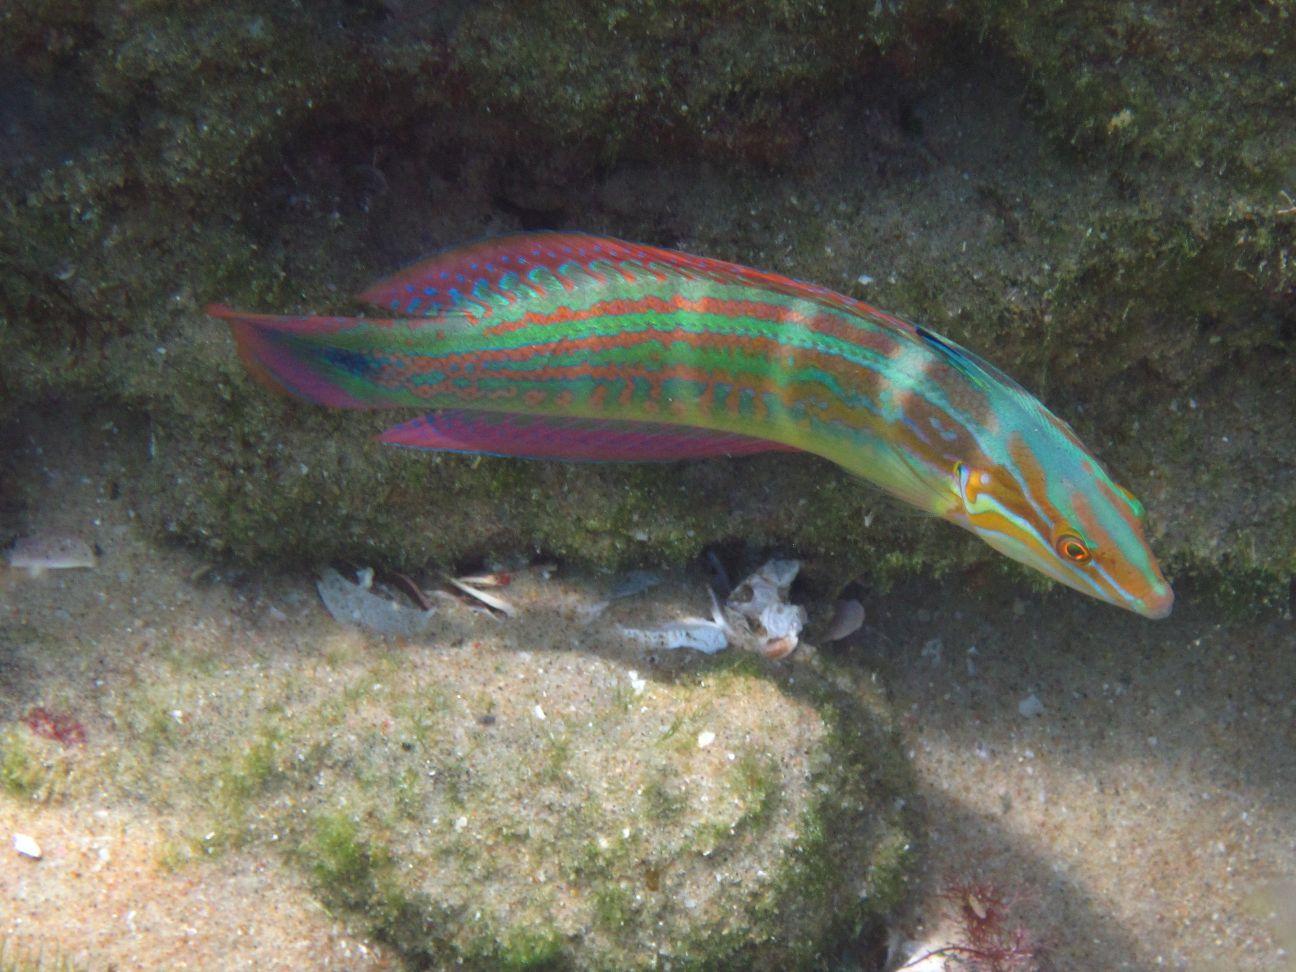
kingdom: Animalia
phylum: Chordata
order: Perciformes
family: Labridae
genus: Coris
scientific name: Coris caudimacula
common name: Spottail coris
